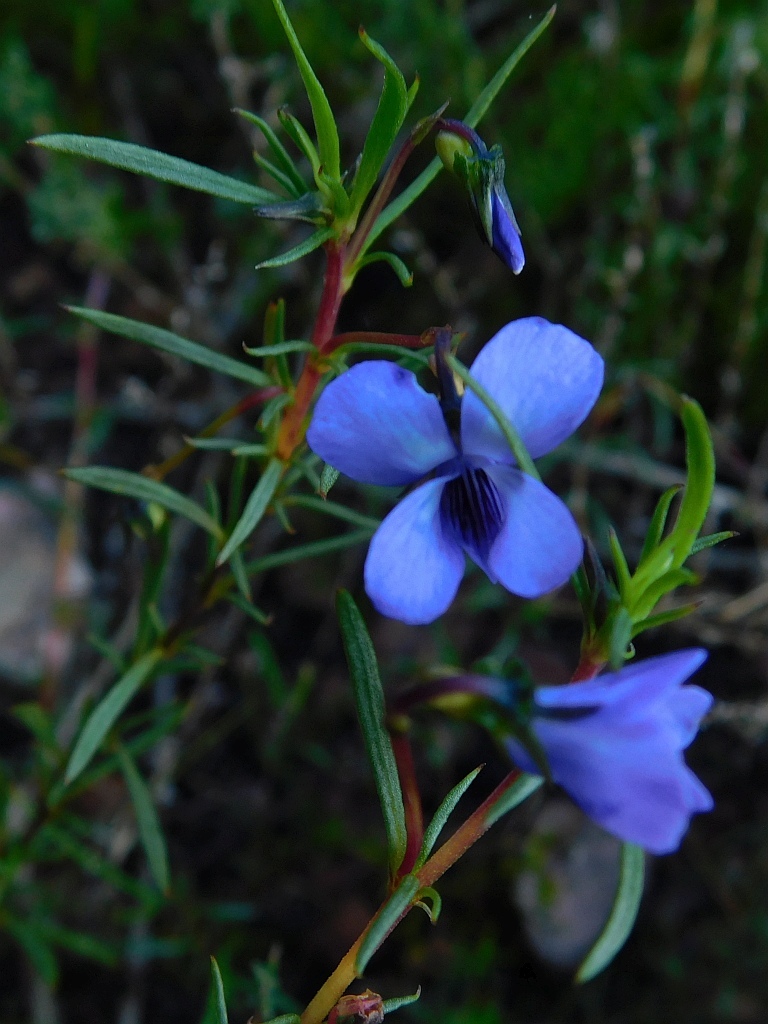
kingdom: Plantae
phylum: Tracheophyta
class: Magnoliopsida
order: Malpighiales
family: Violaceae
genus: Viola
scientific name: Viola decumbens
